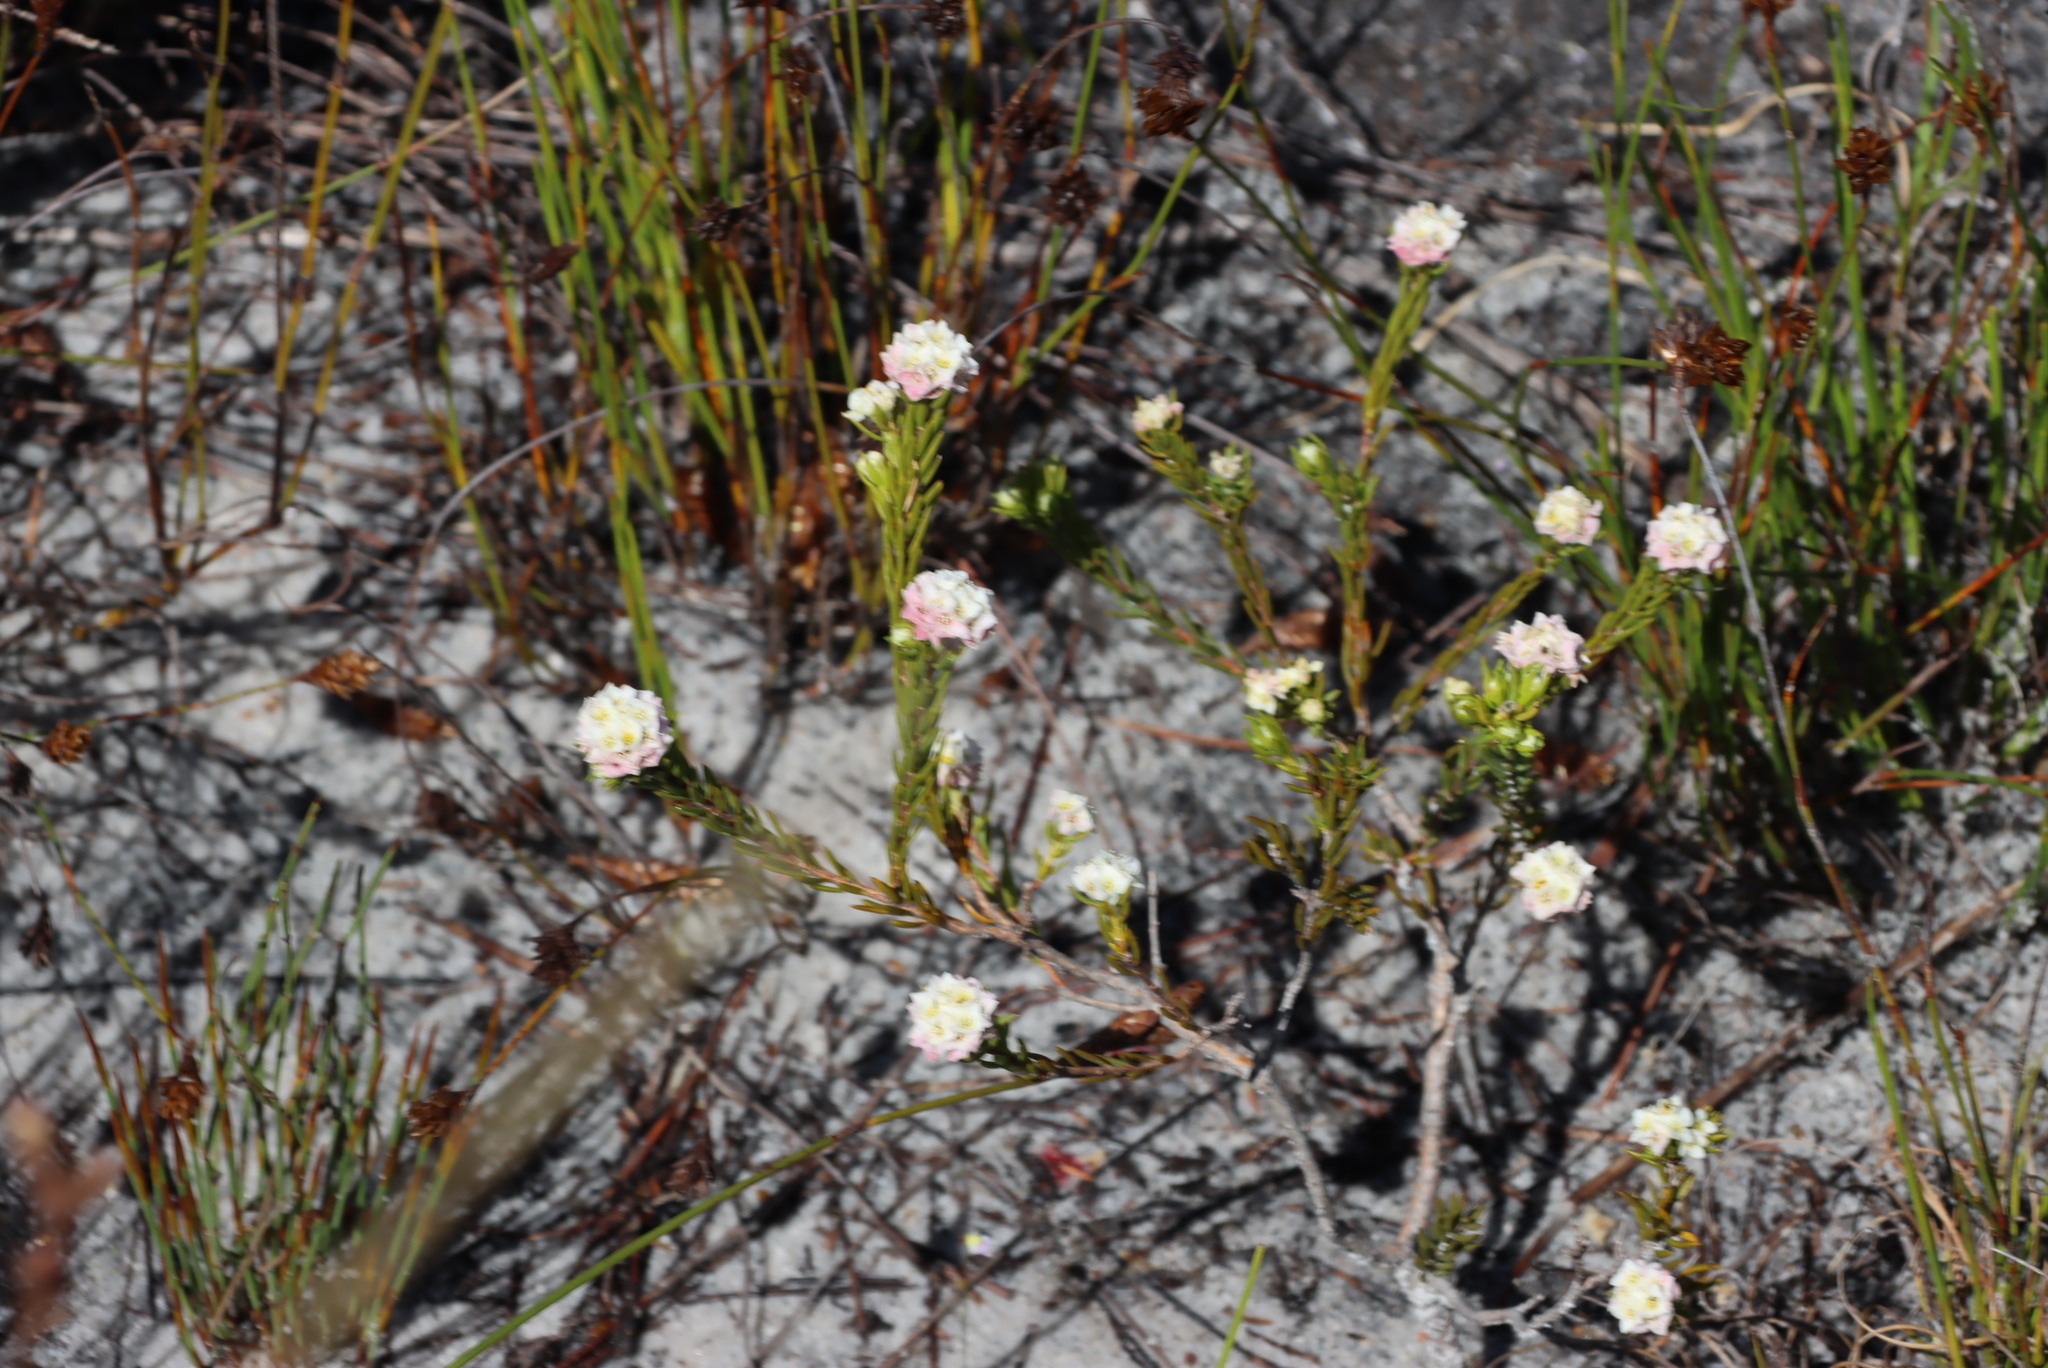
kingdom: Plantae
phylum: Tracheophyta
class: Magnoliopsida
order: Malvales
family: Thymelaeaceae
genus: Lachnaea
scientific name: Lachnaea densiflora
